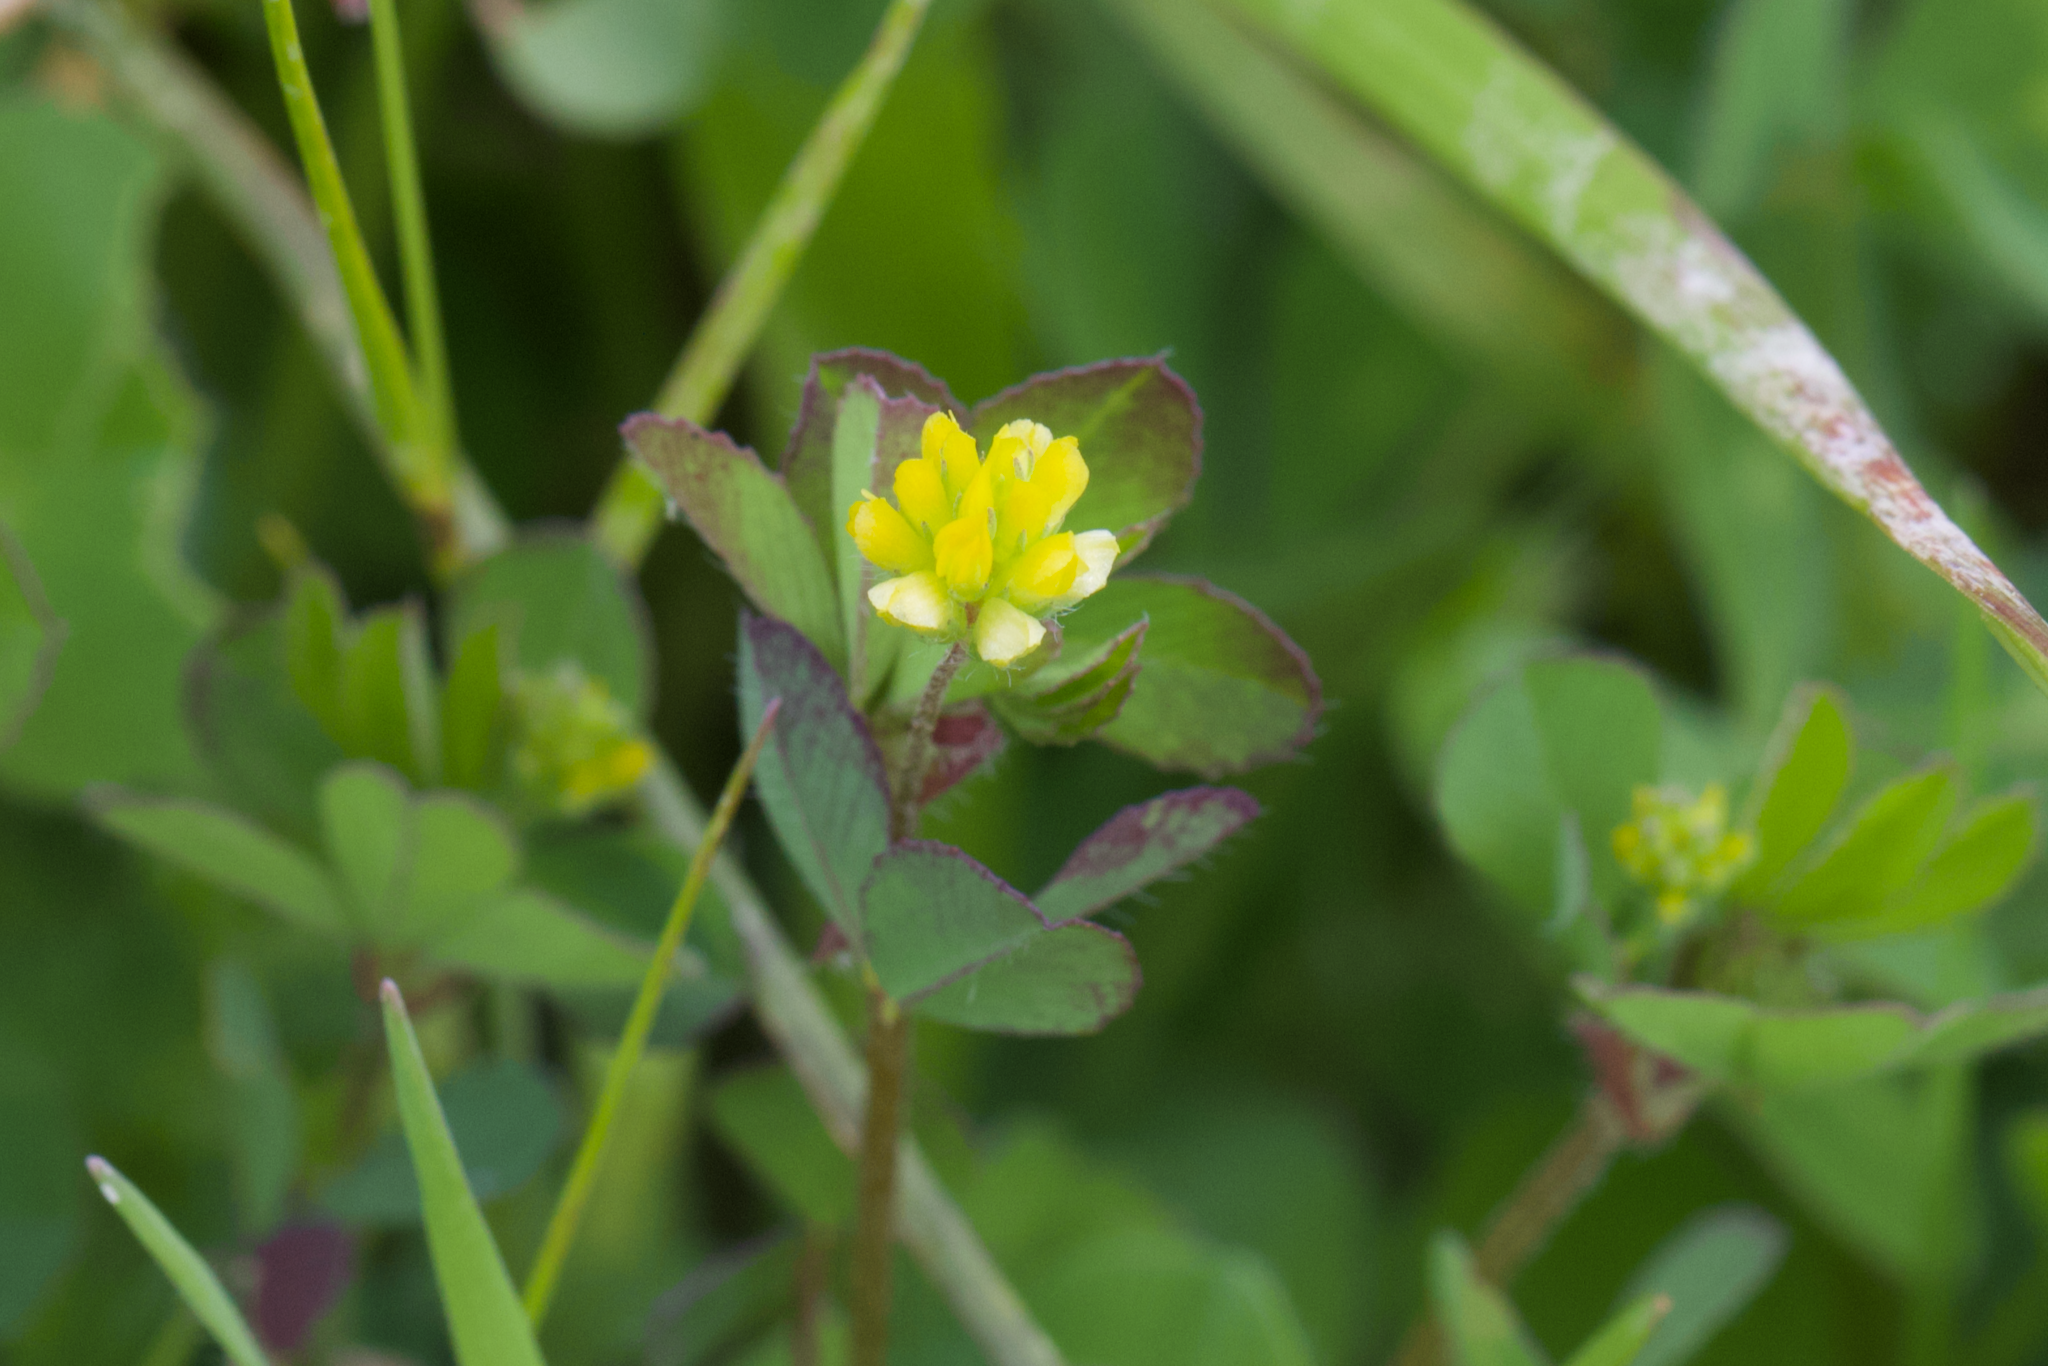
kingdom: Plantae
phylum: Tracheophyta
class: Magnoliopsida
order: Fabales
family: Fabaceae
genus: Trifolium
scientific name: Trifolium dubium
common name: Suckling clover
